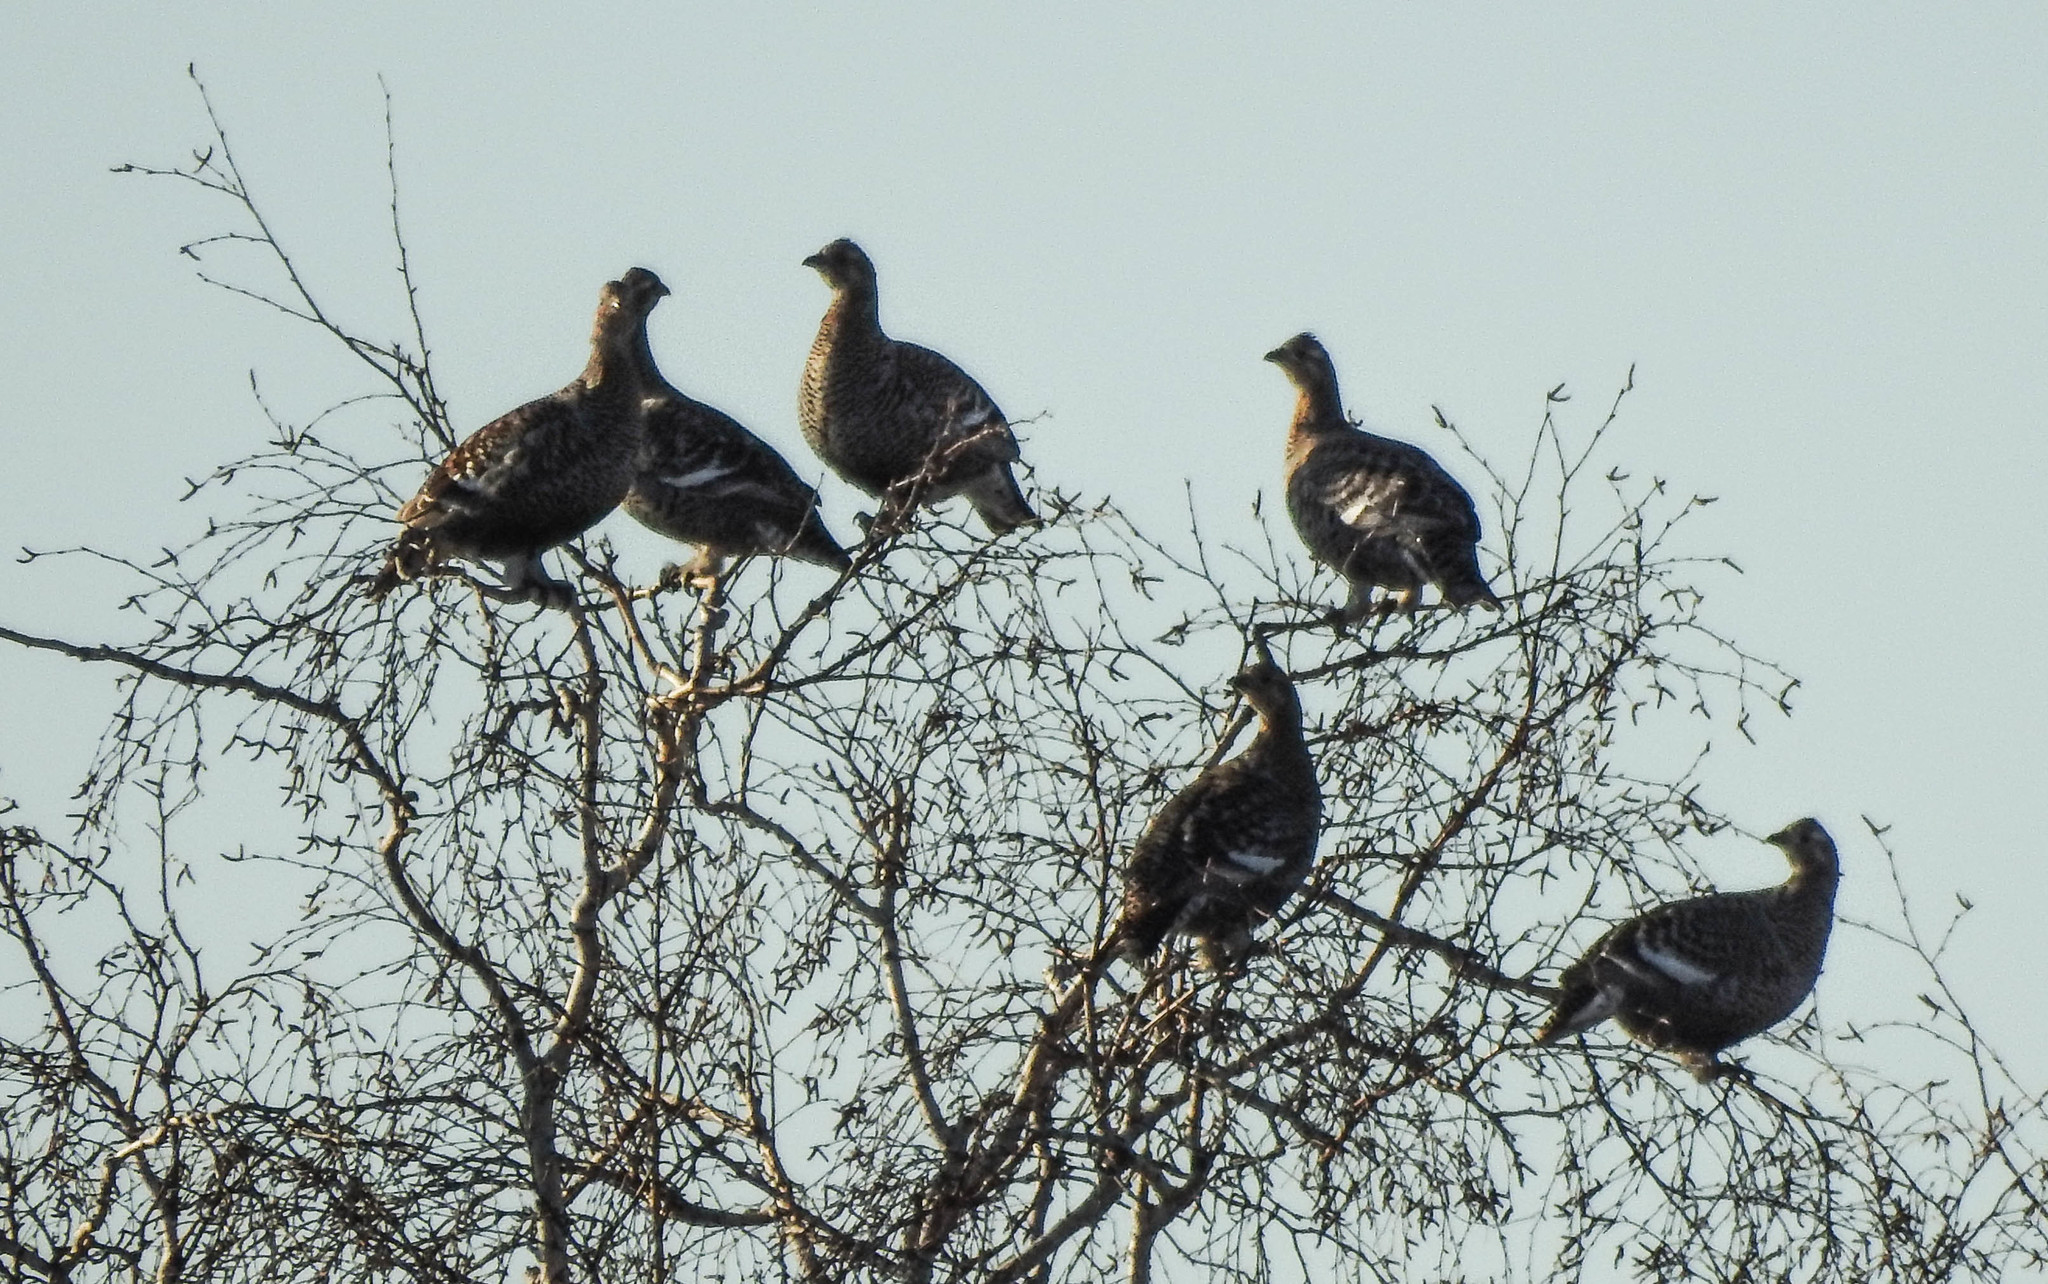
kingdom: Animalia
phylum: Chordata
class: Aves
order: Galliformes
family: Phasianidae
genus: Lyrurus
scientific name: Lyrurus tetrix
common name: Black grouse
